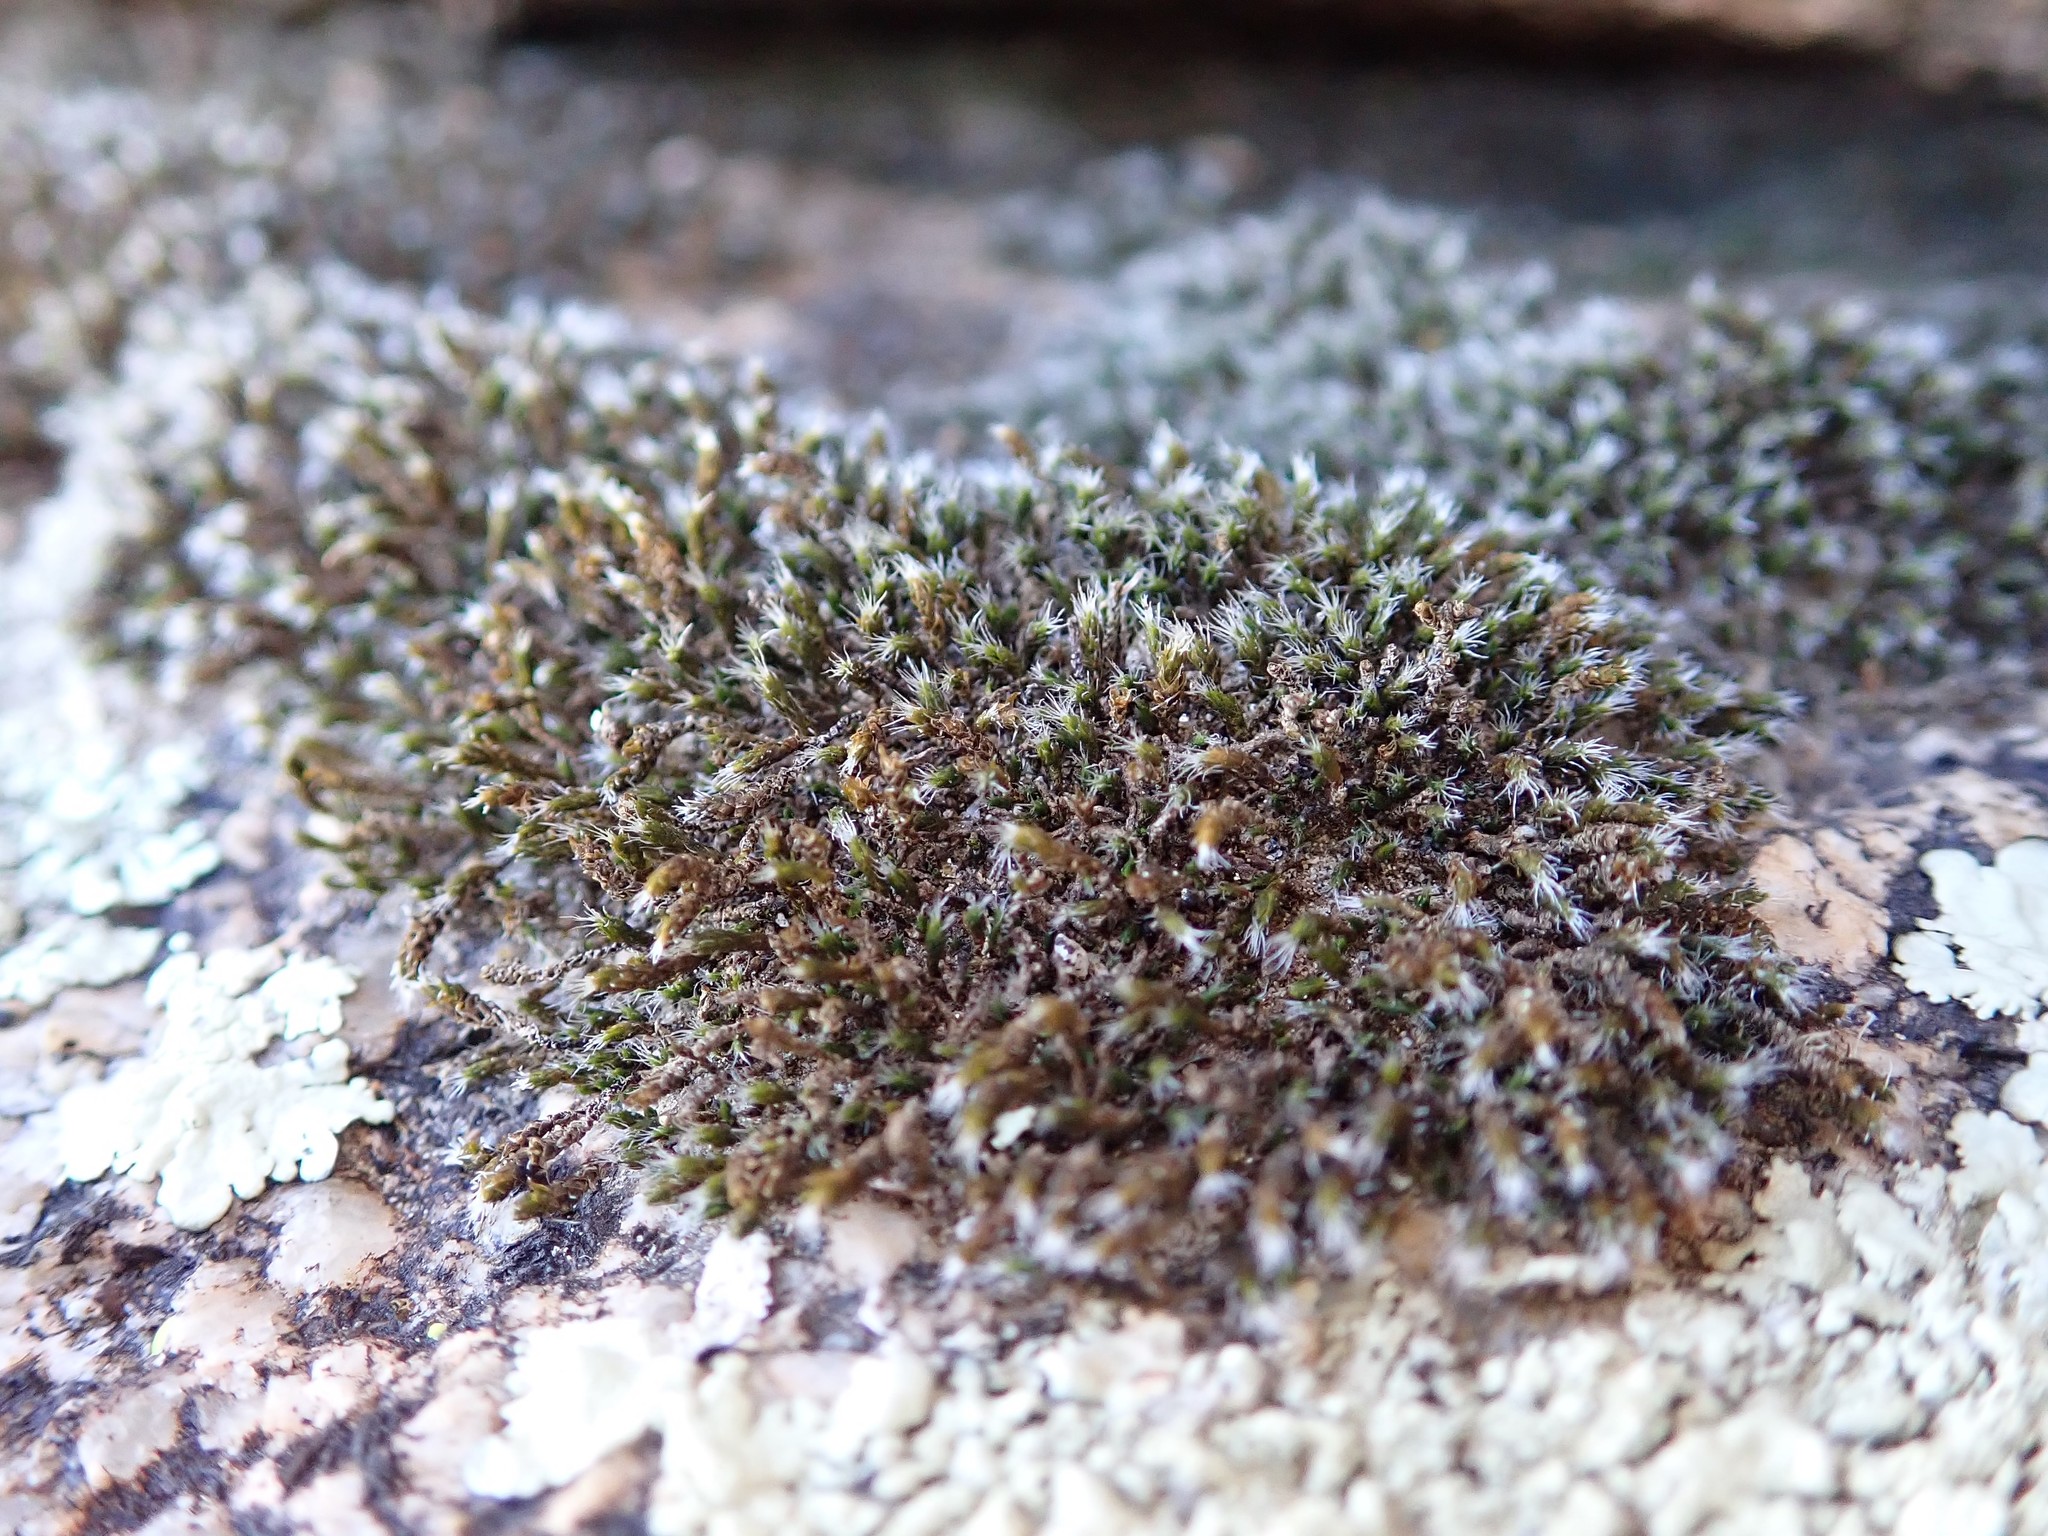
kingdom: Plantae
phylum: Bryophyta
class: Bryopsida
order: Grimmiales
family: Grimmiaceae
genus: Grimmia
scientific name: Grimmia laevigata
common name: Hoary grimmia
